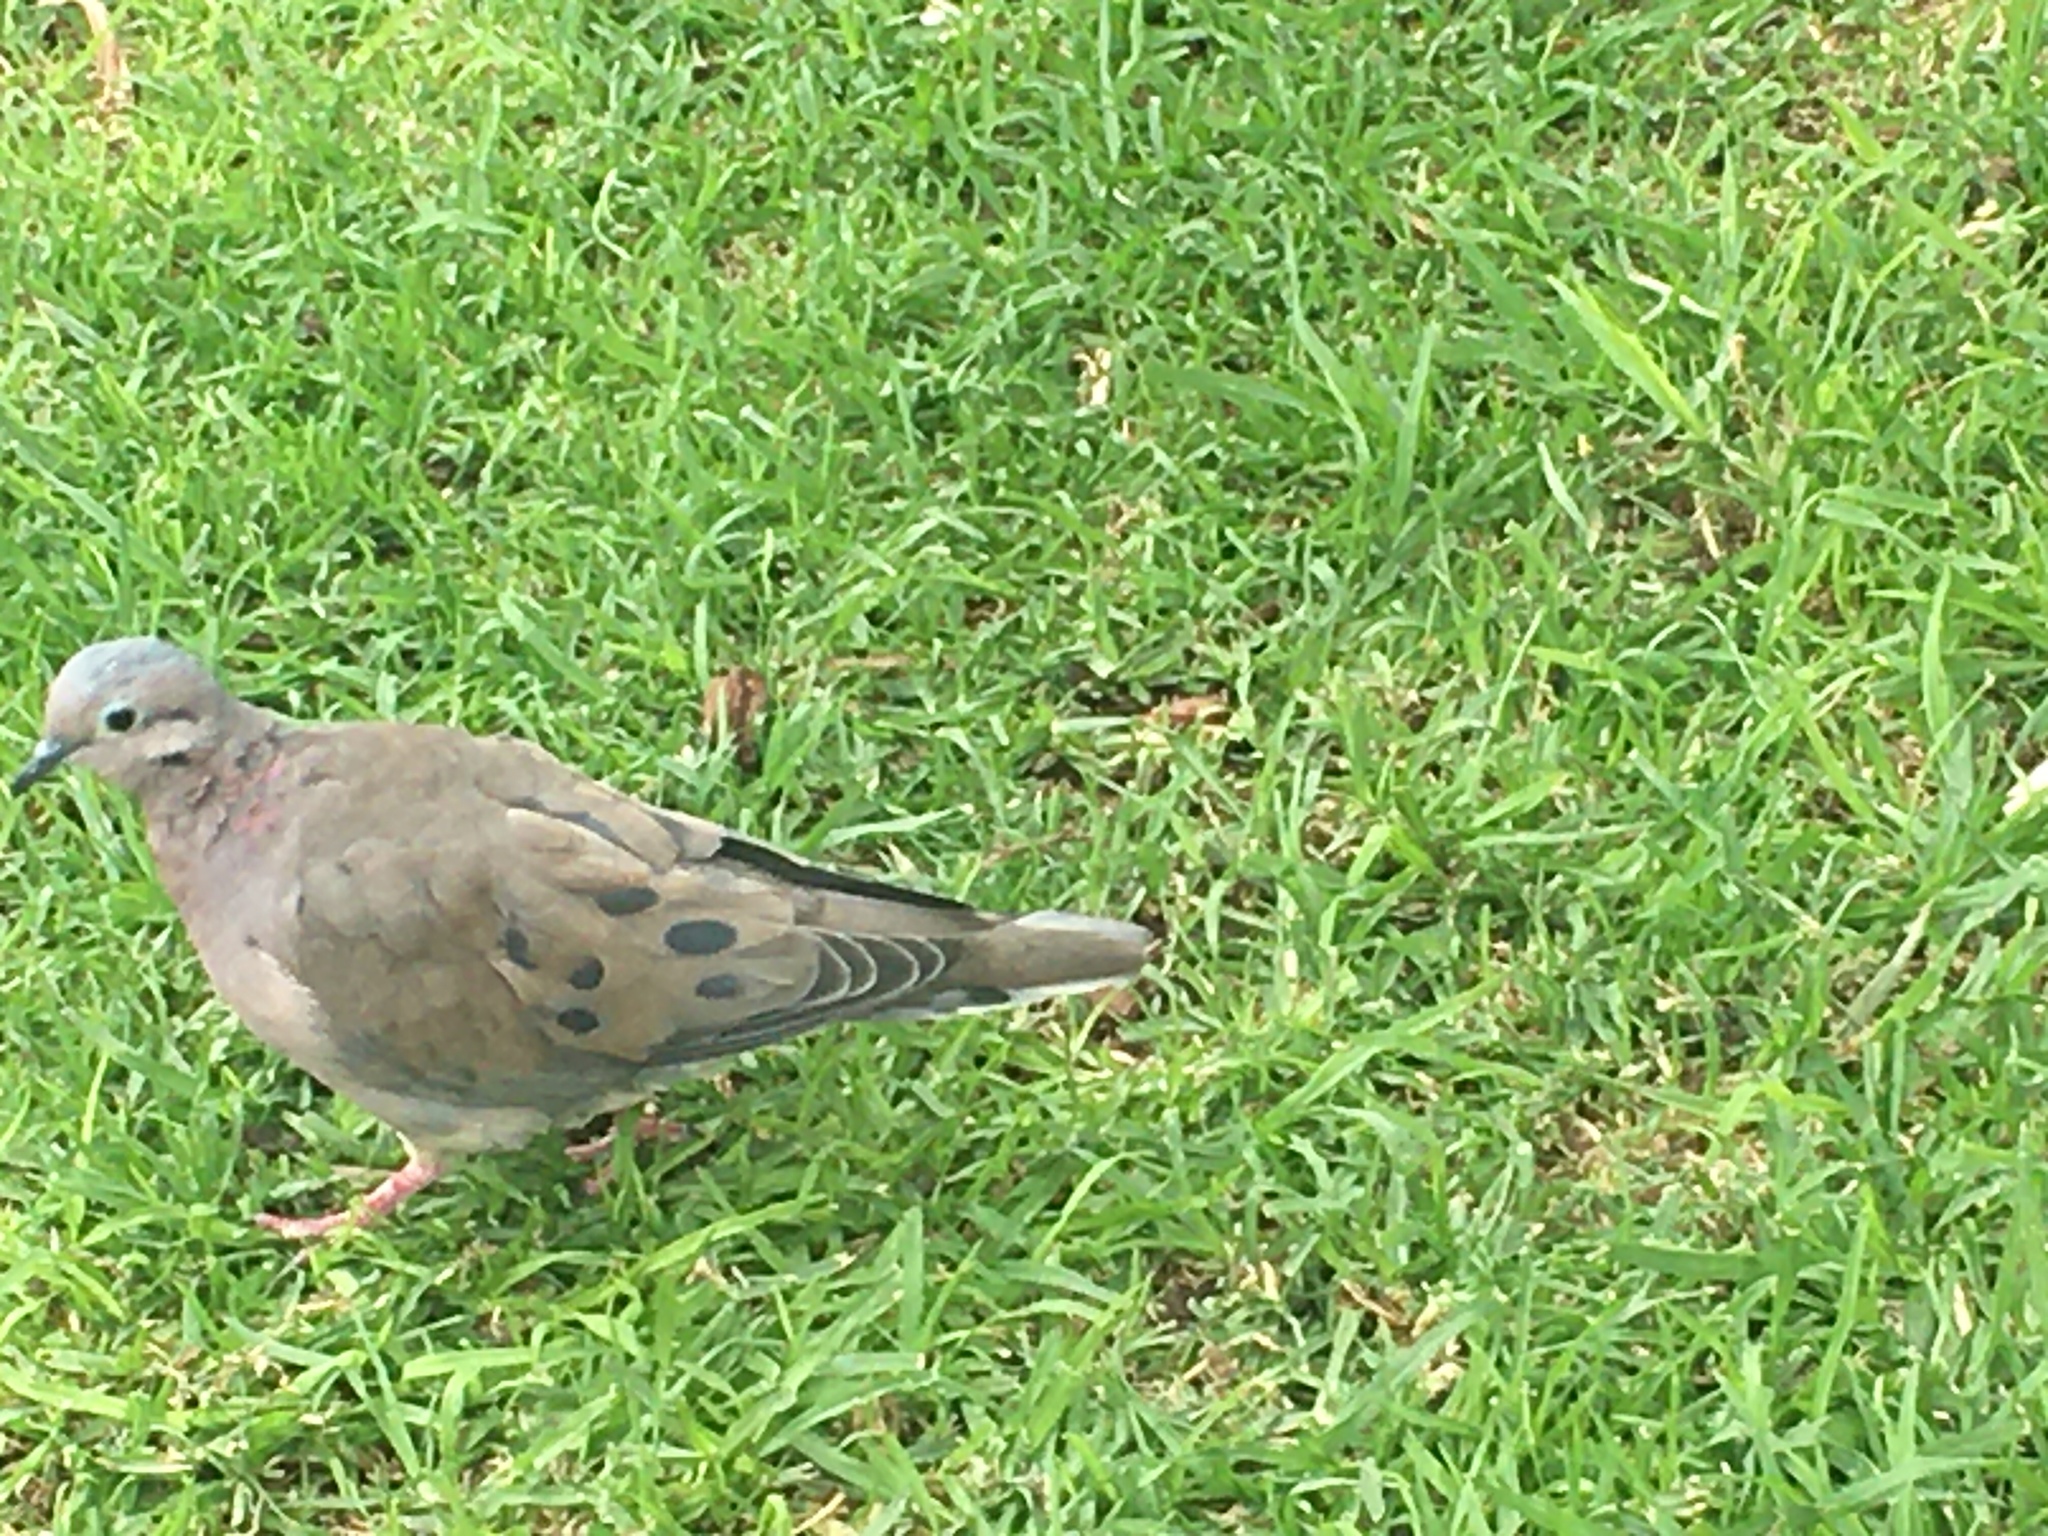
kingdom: Animalia
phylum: Chordata
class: Aves
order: Columbiformes
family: Columbidae
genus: Zenaida
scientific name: Zenaida auriculata
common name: Eared dove
